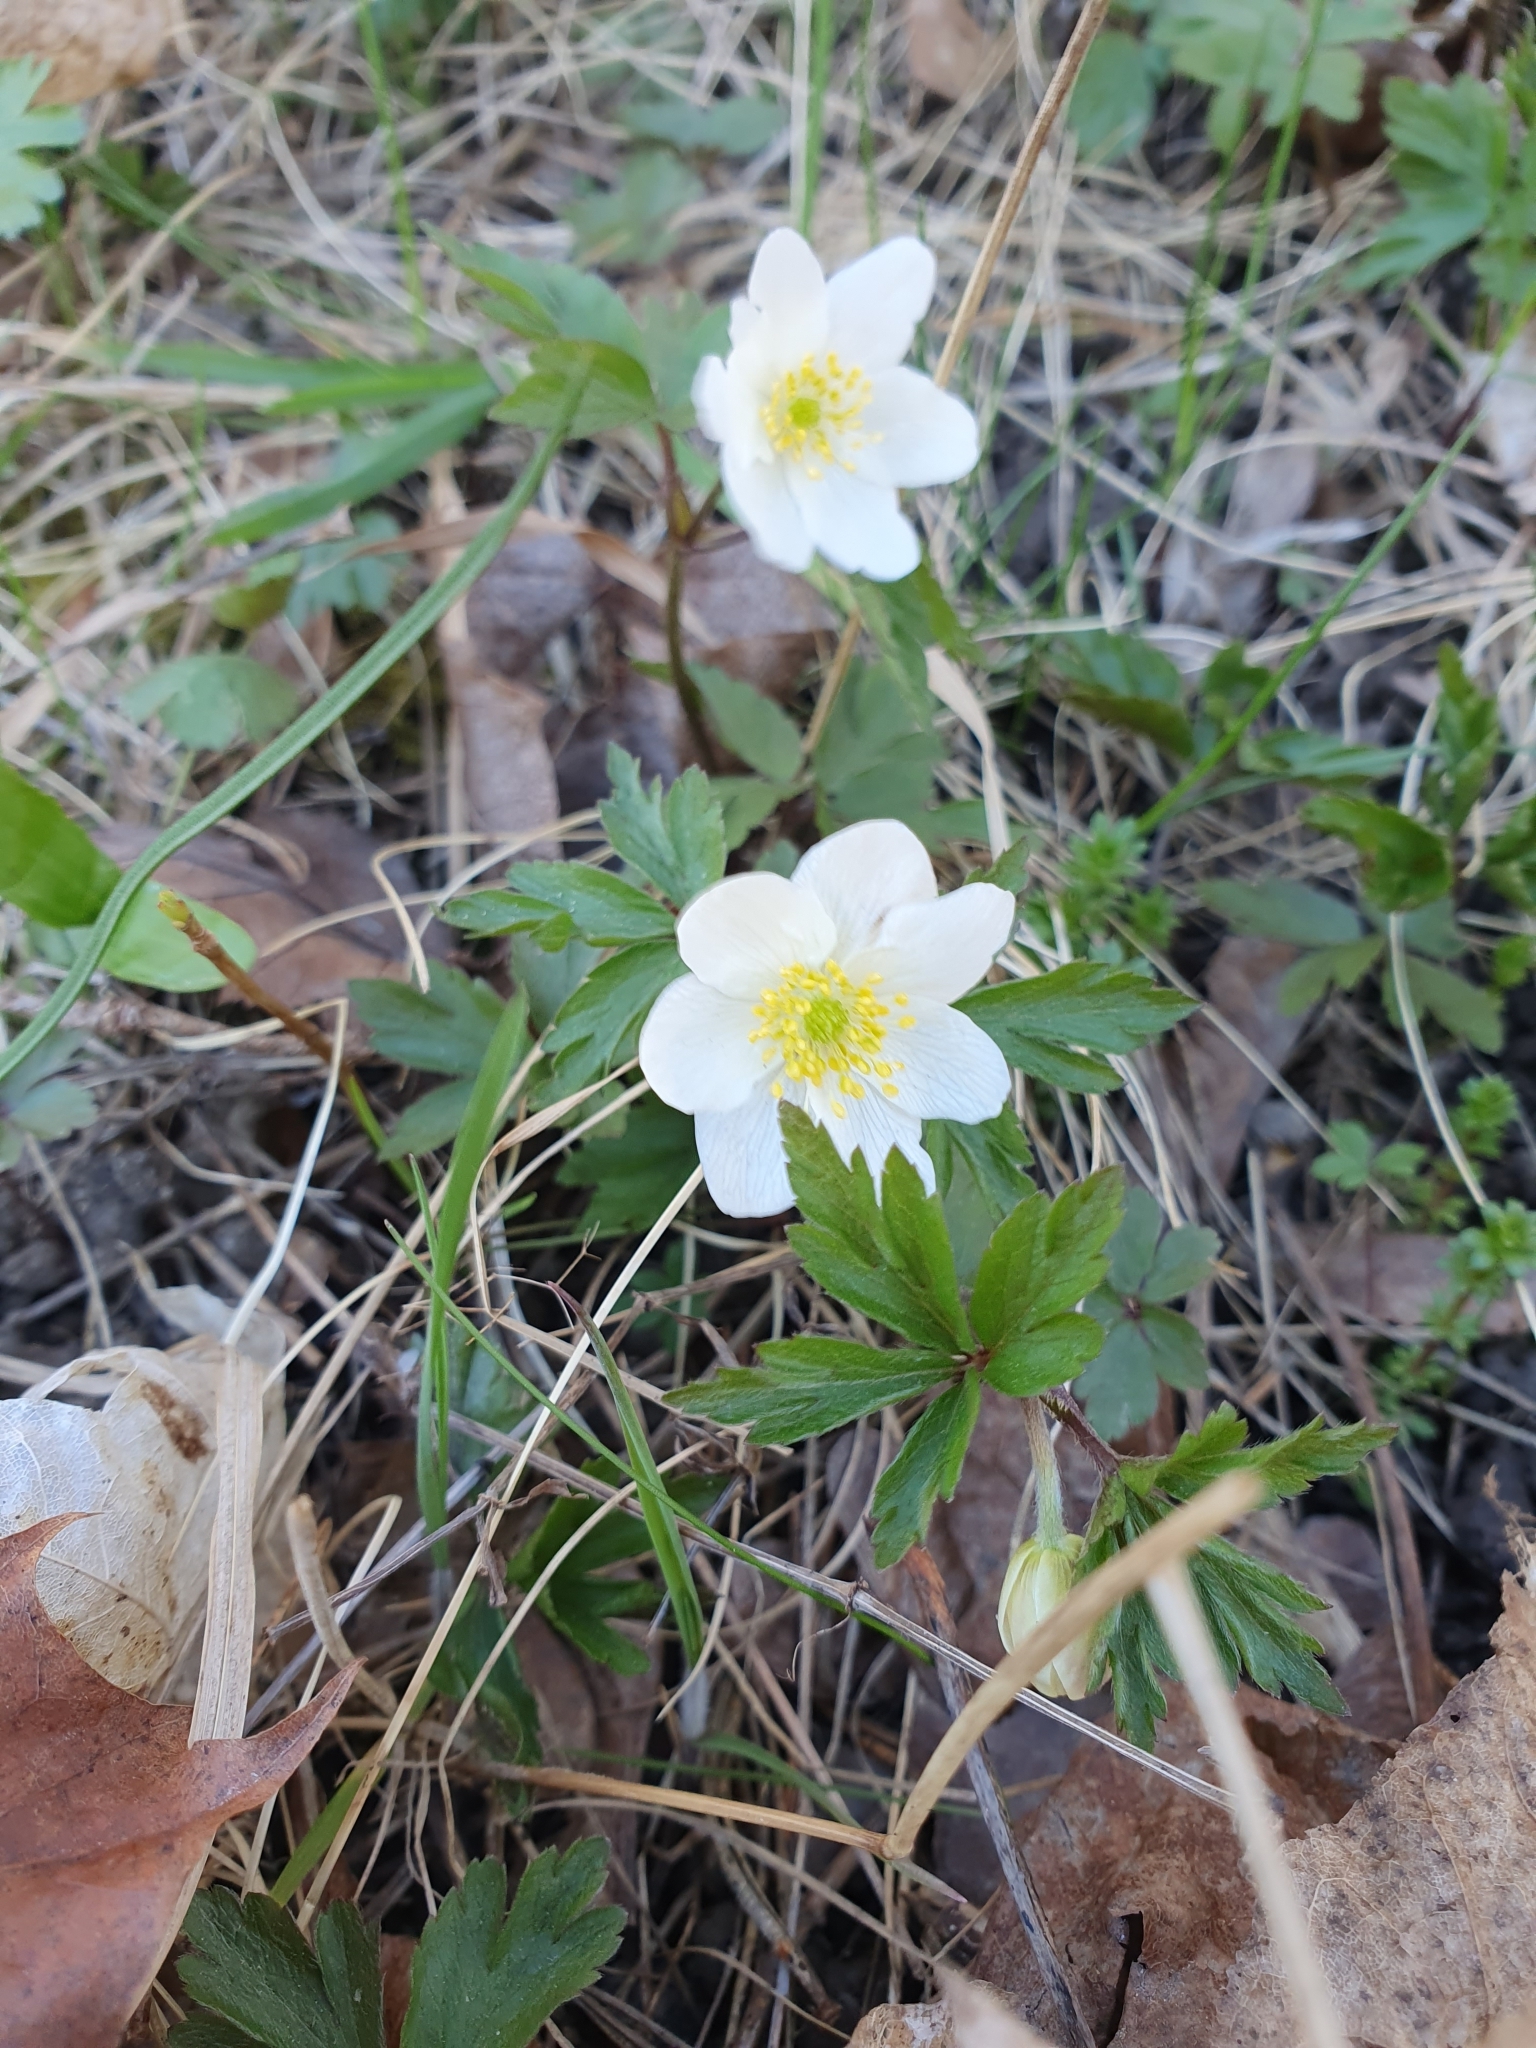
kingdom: Plantae
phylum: Tracheophyta
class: Magnoliopsida
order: Ranunculales
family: Ranunculaceae
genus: Anemone
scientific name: Anemone nemorosa
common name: Wood anemone
